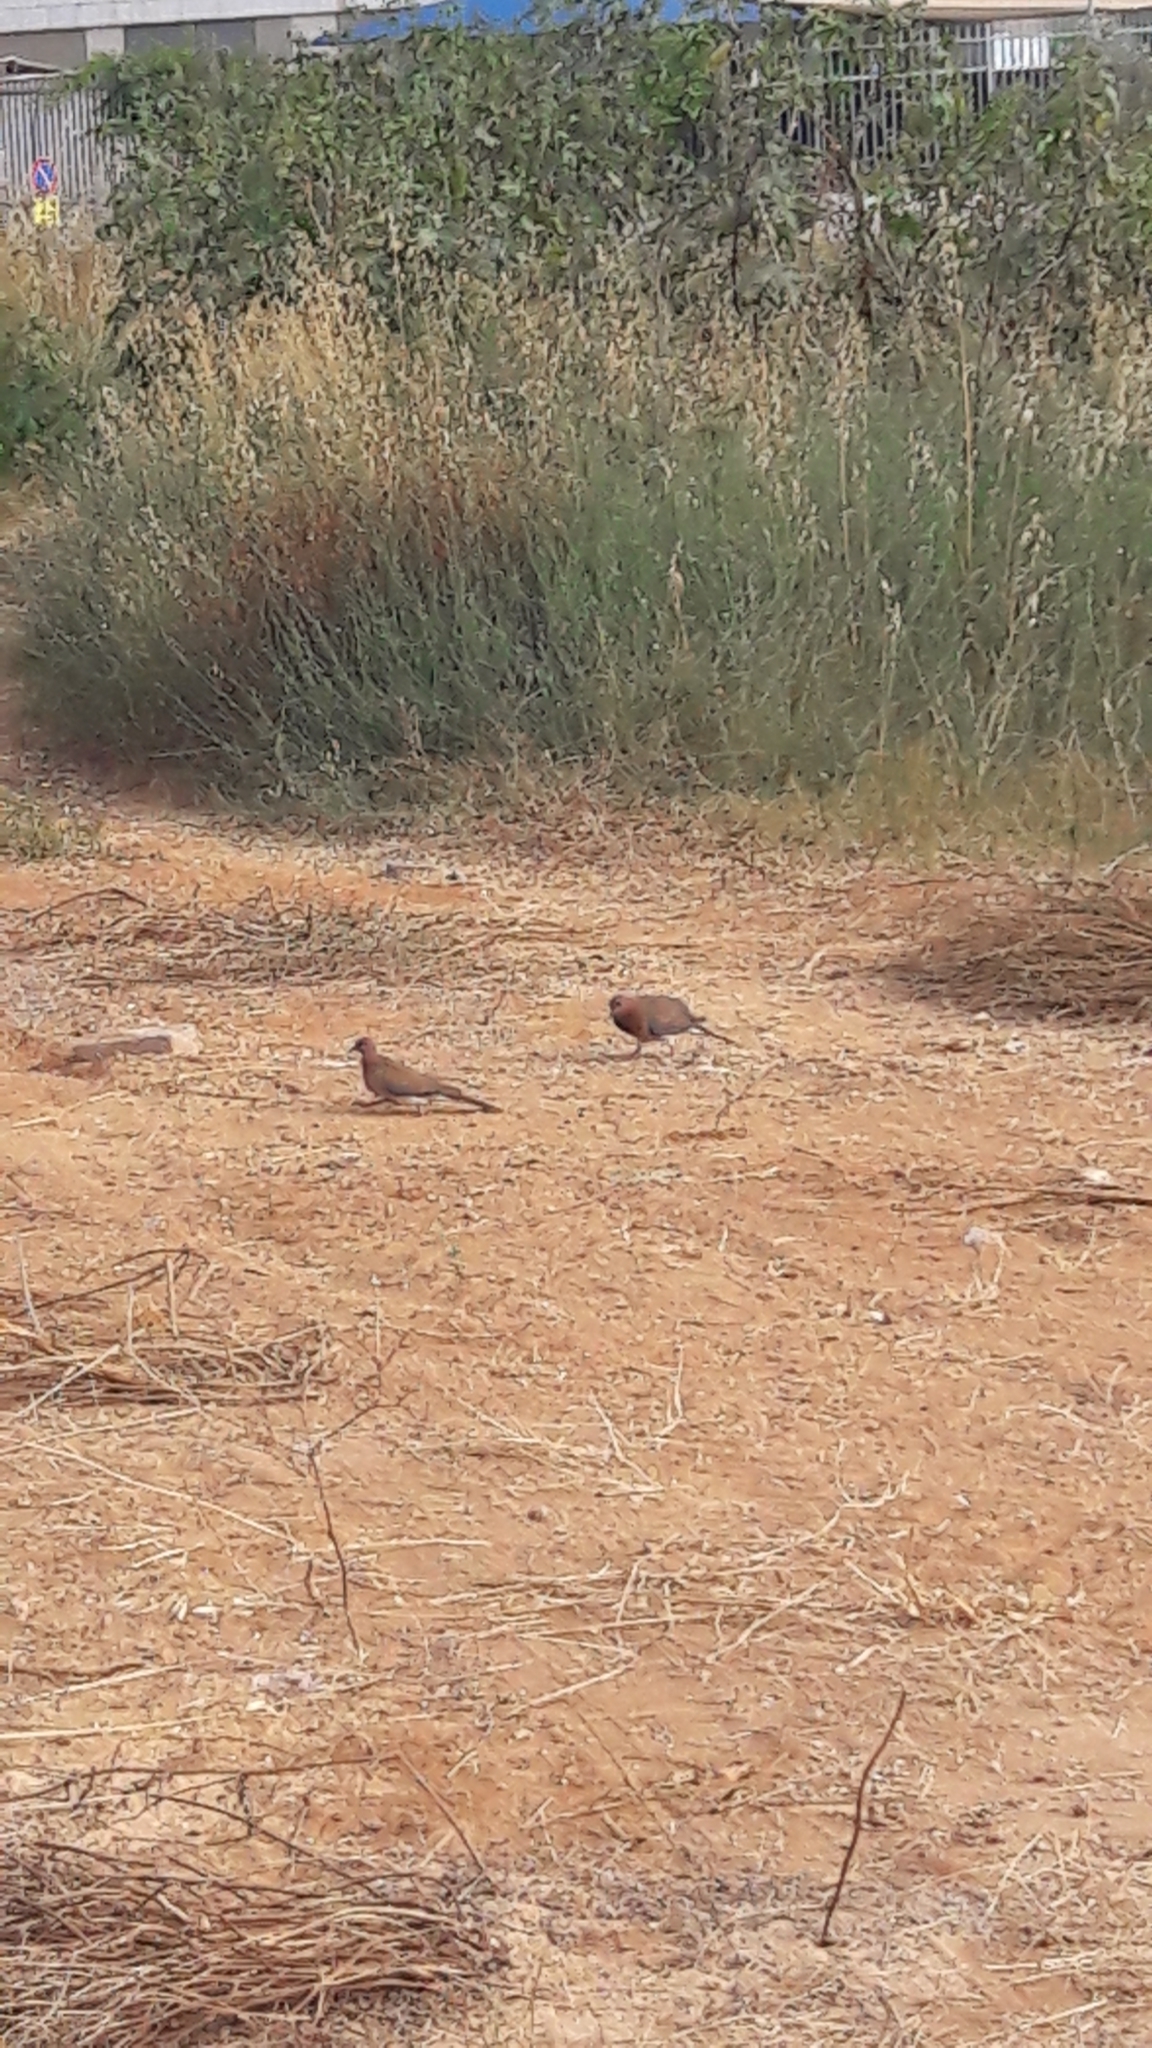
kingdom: Animalia
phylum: Chordata
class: Aves
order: Columbiformes
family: Columbidae
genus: Spilopelia
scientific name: Spilopelia senegalensis
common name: Laughing dove
